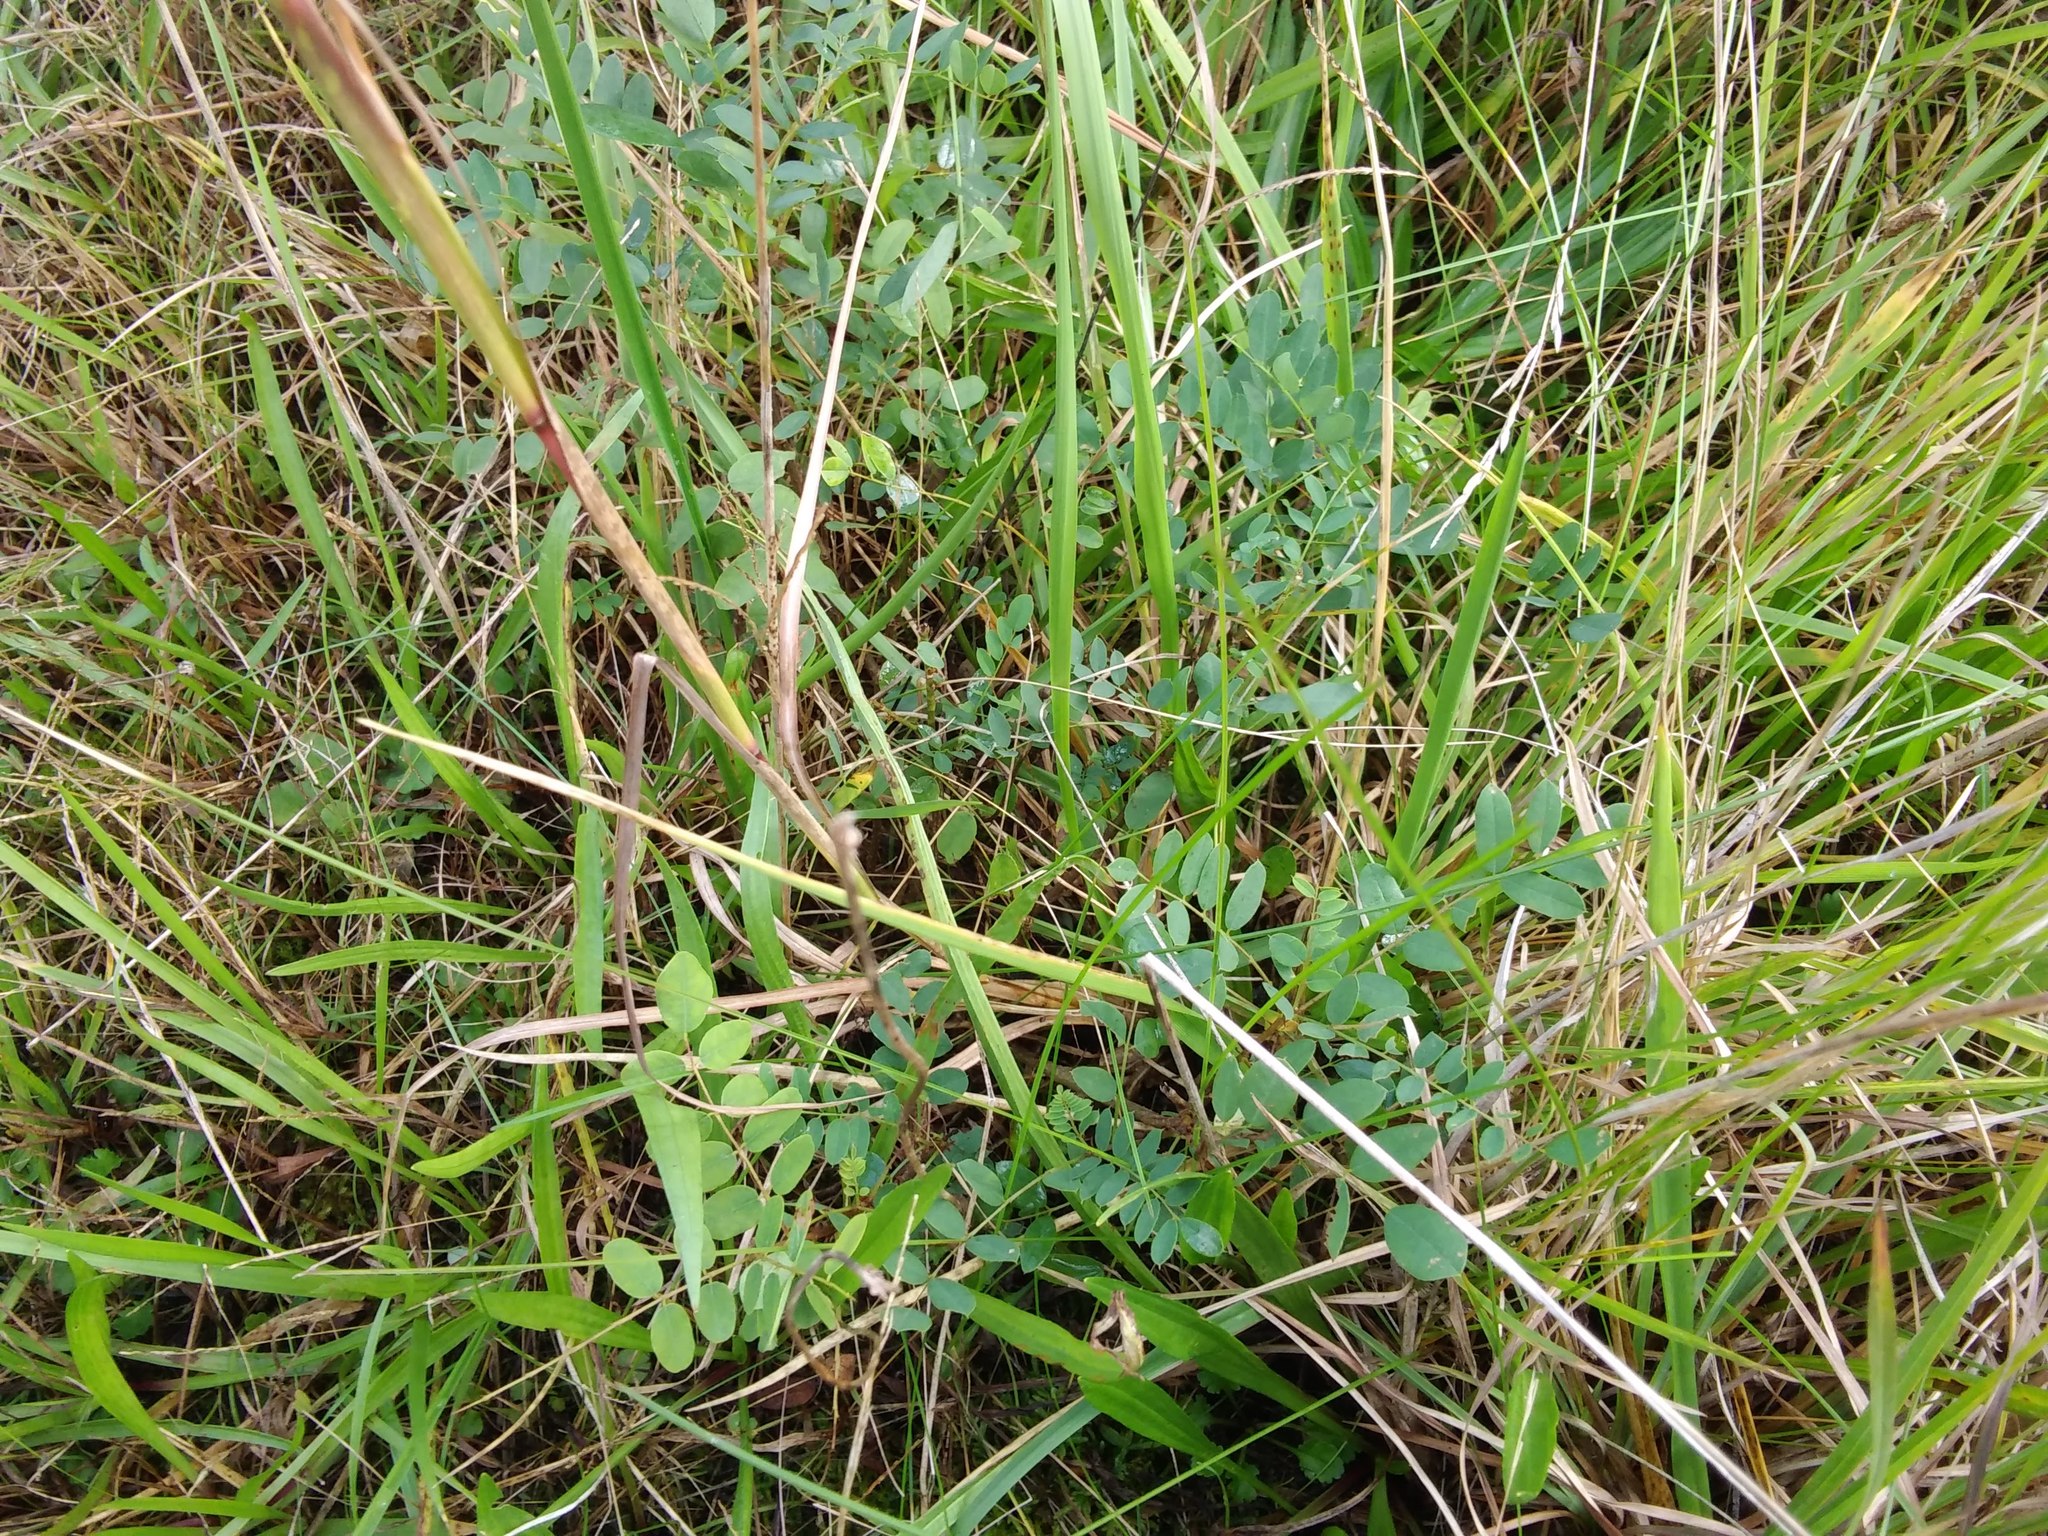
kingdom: Plantae
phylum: Tracheophyta
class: Magnoliopsida
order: Fabales
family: Fabaceae
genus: Melilotus
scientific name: Melilotus
